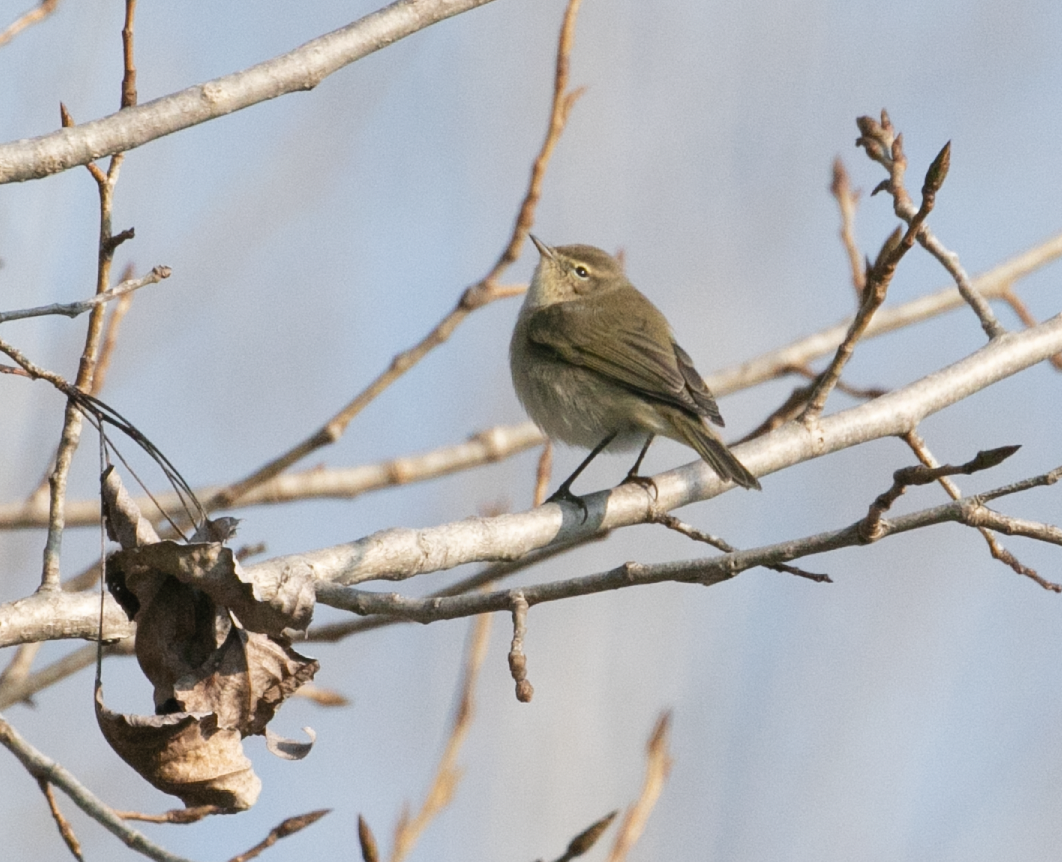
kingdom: Animalia
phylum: Chordata
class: Aves
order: Passeriformes
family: Phylloscopidae
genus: Phylloscopus
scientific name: Phylloscopus collybita
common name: Common chiffchaff
